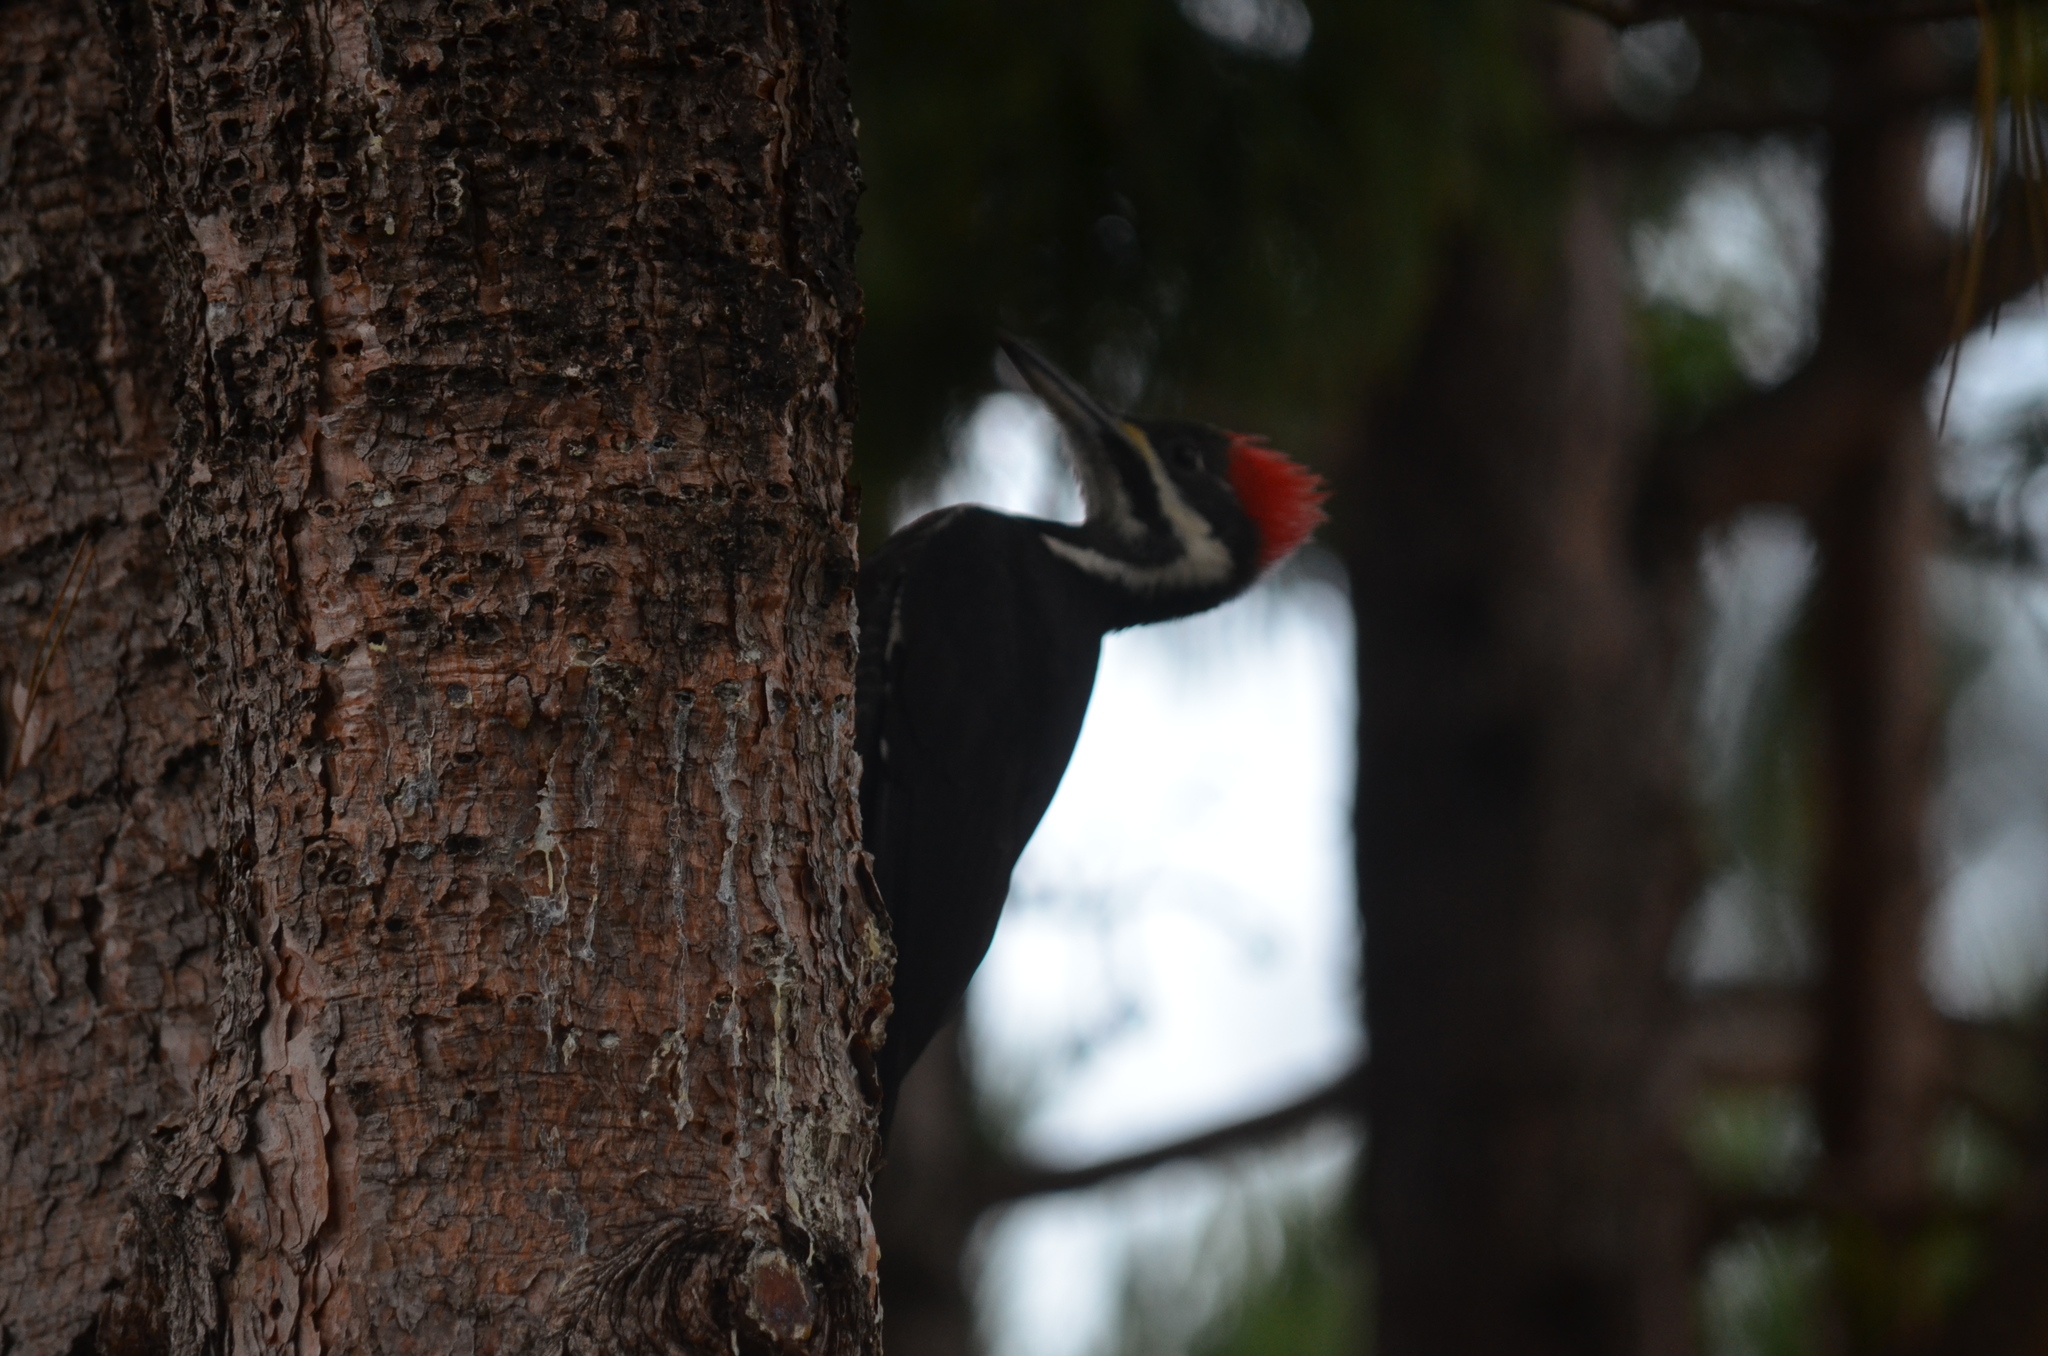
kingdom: Animalia
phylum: Chordata
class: Aves
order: Piciformes
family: Picidae
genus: Dryocopus
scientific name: Dryocopus pileatus
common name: Pileated woodpecker
